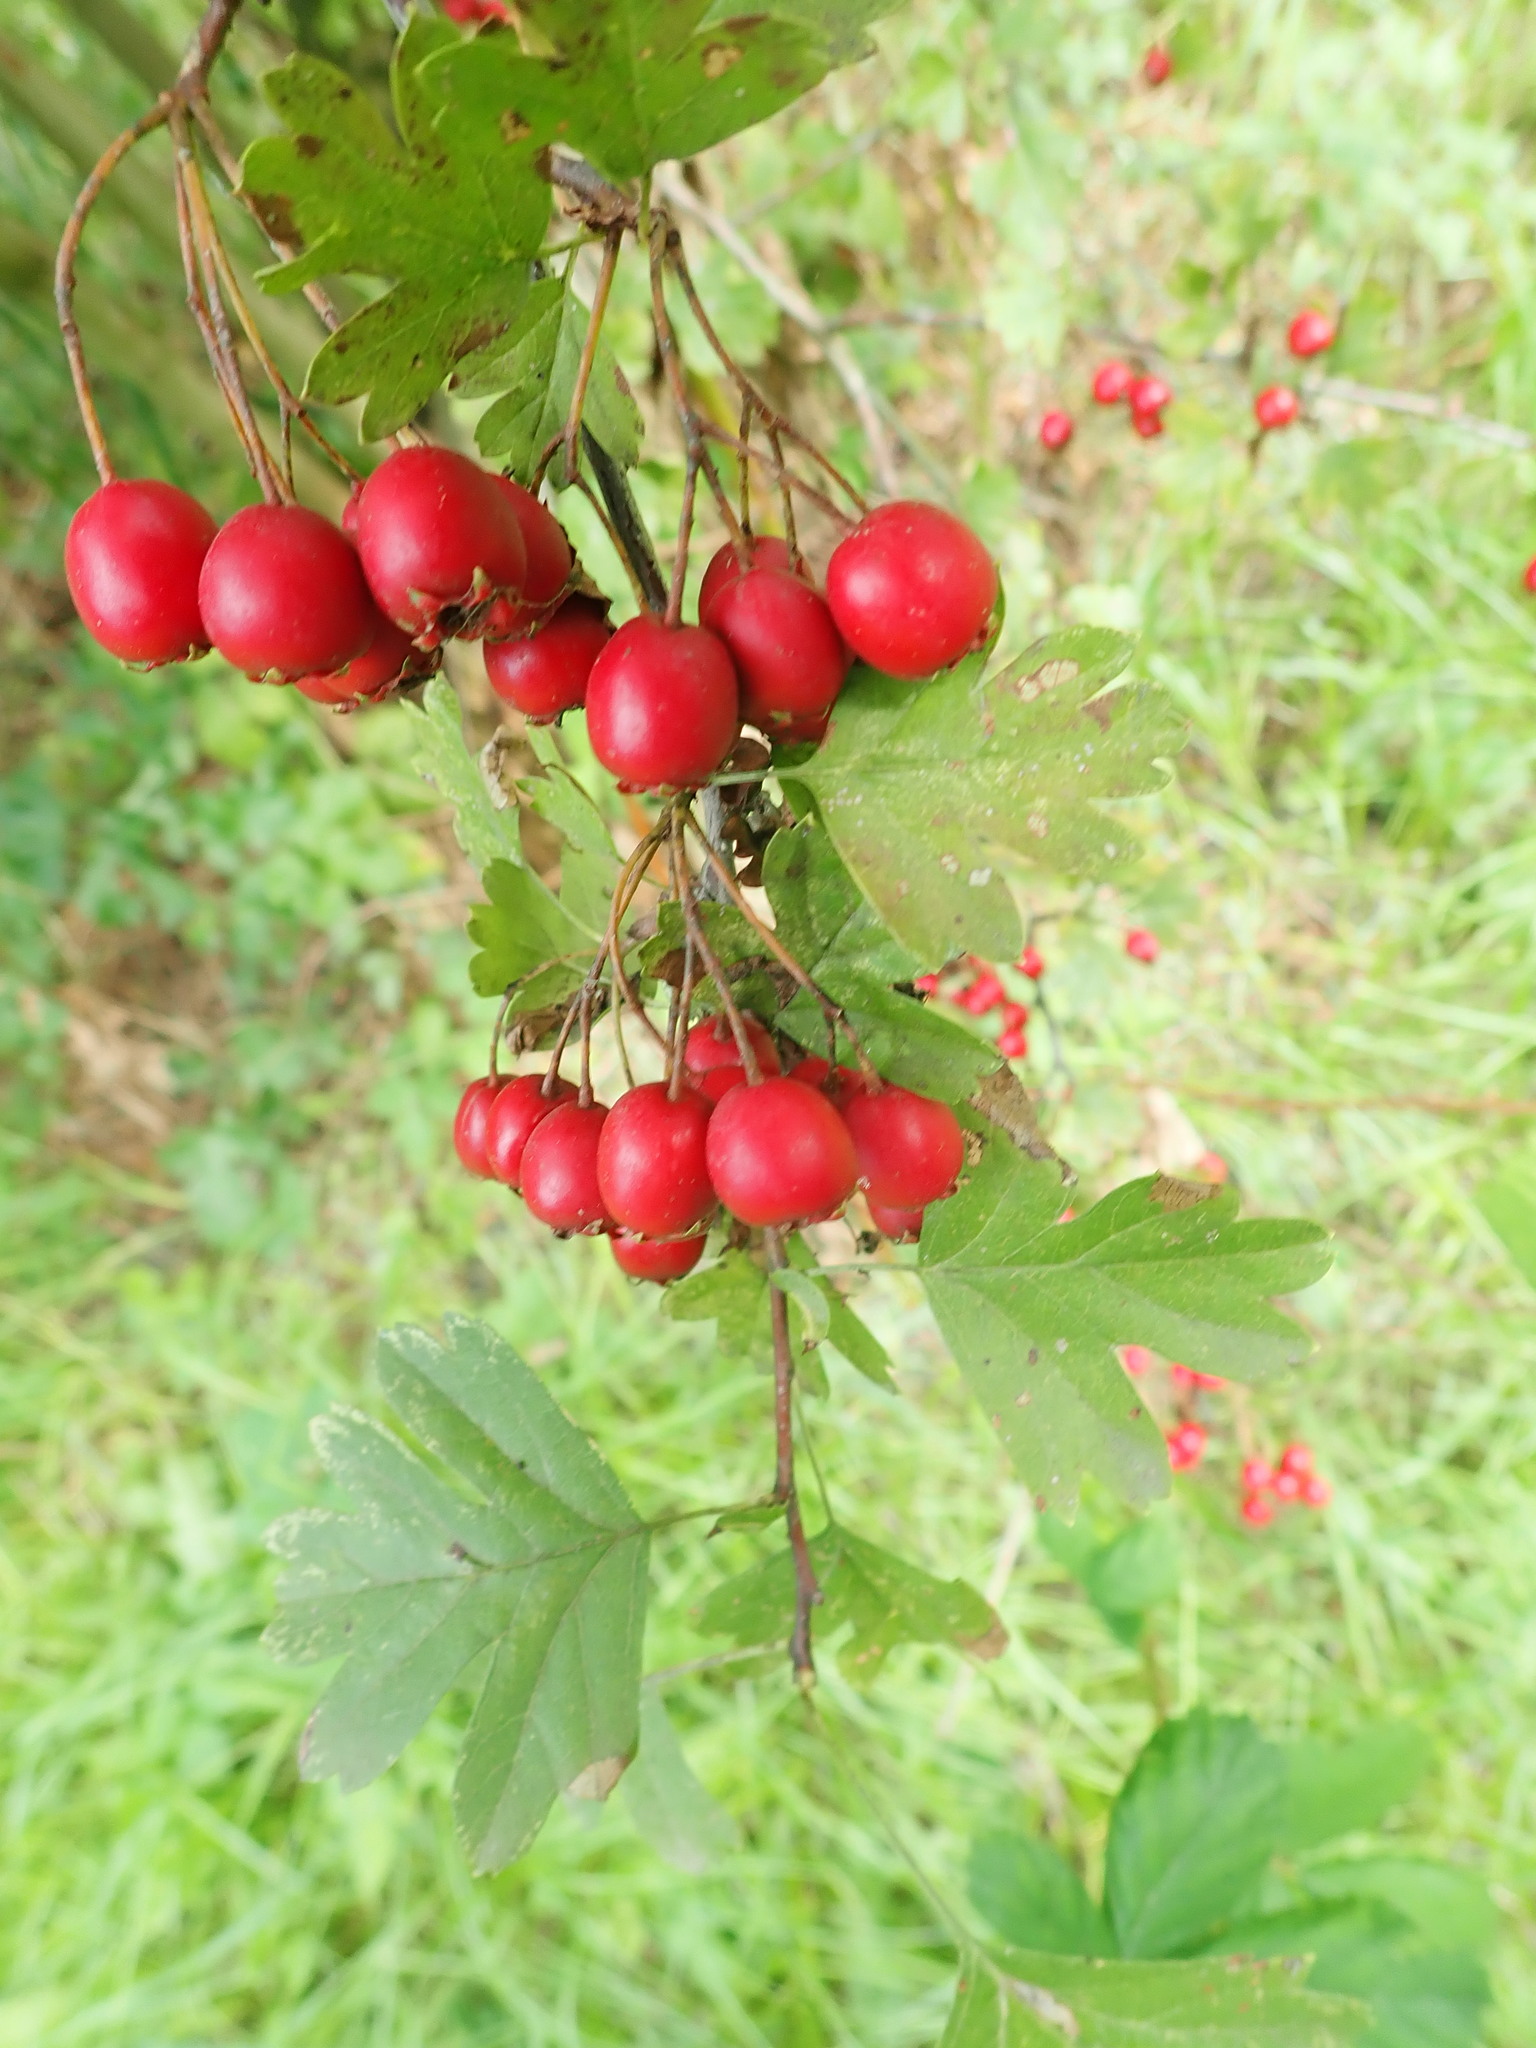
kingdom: Plantae
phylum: Tracheophyta
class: Magnoliopsida
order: Rosales
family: Rosaceae
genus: Crataegus
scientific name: Crataegus monogyna
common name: Hawthorn
